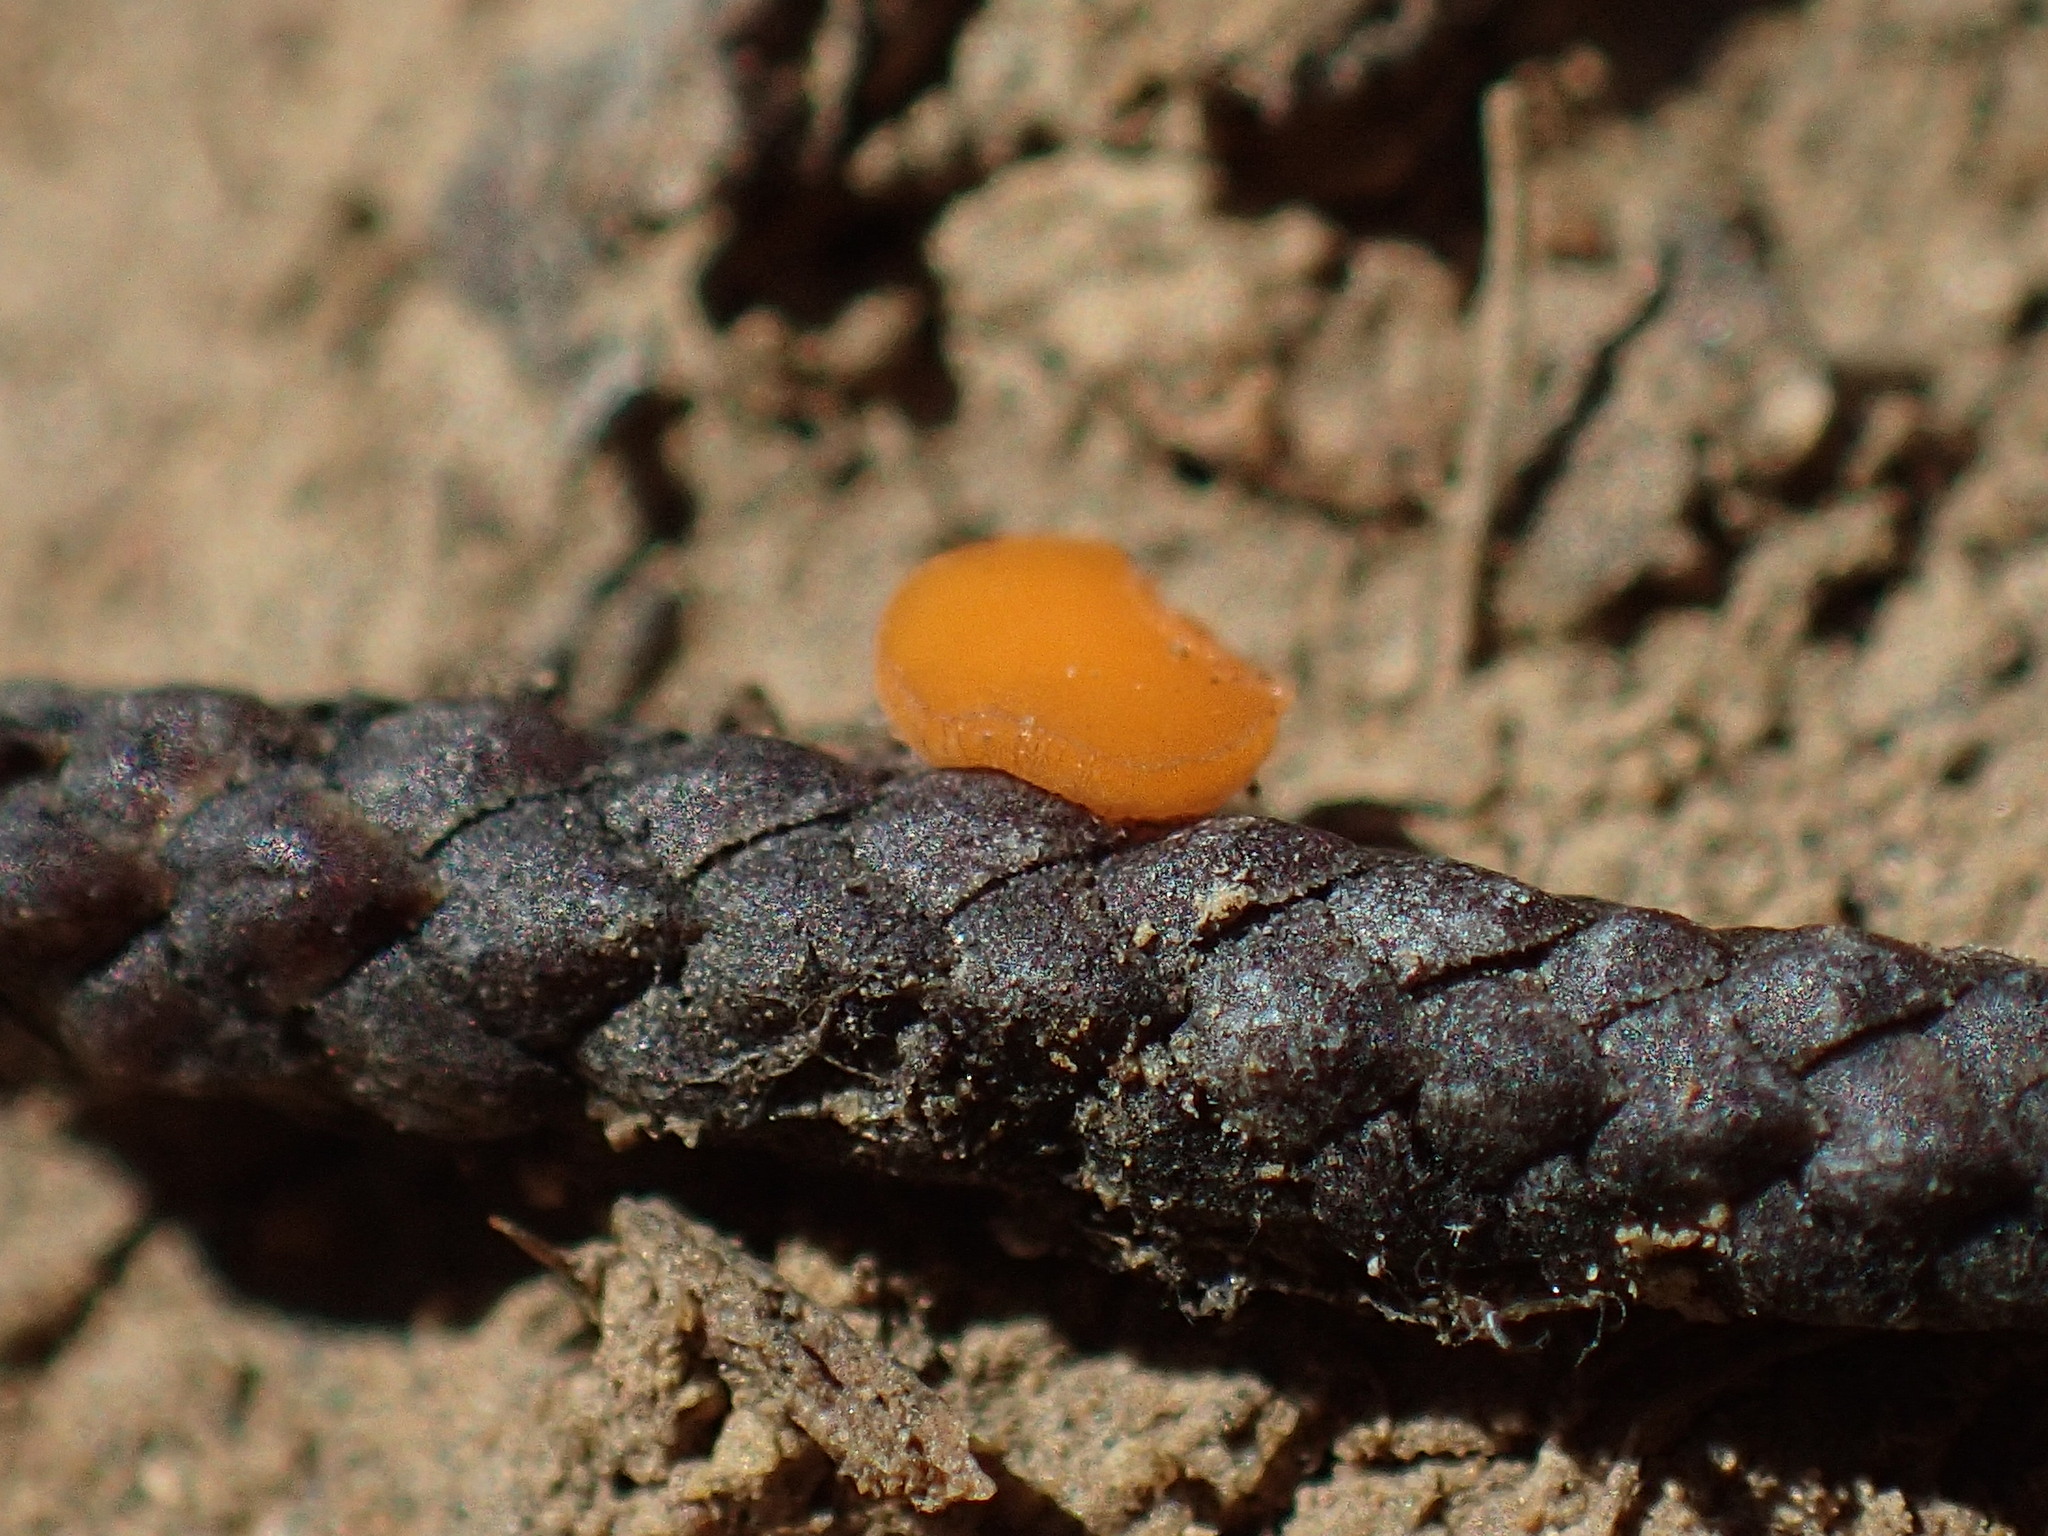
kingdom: Fungi
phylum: Ascomycota
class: Pezizomycetes
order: Pezizales
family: Sarcoscyphaceae
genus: Pithya
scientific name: Pithya cupressina
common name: Juniper disco
